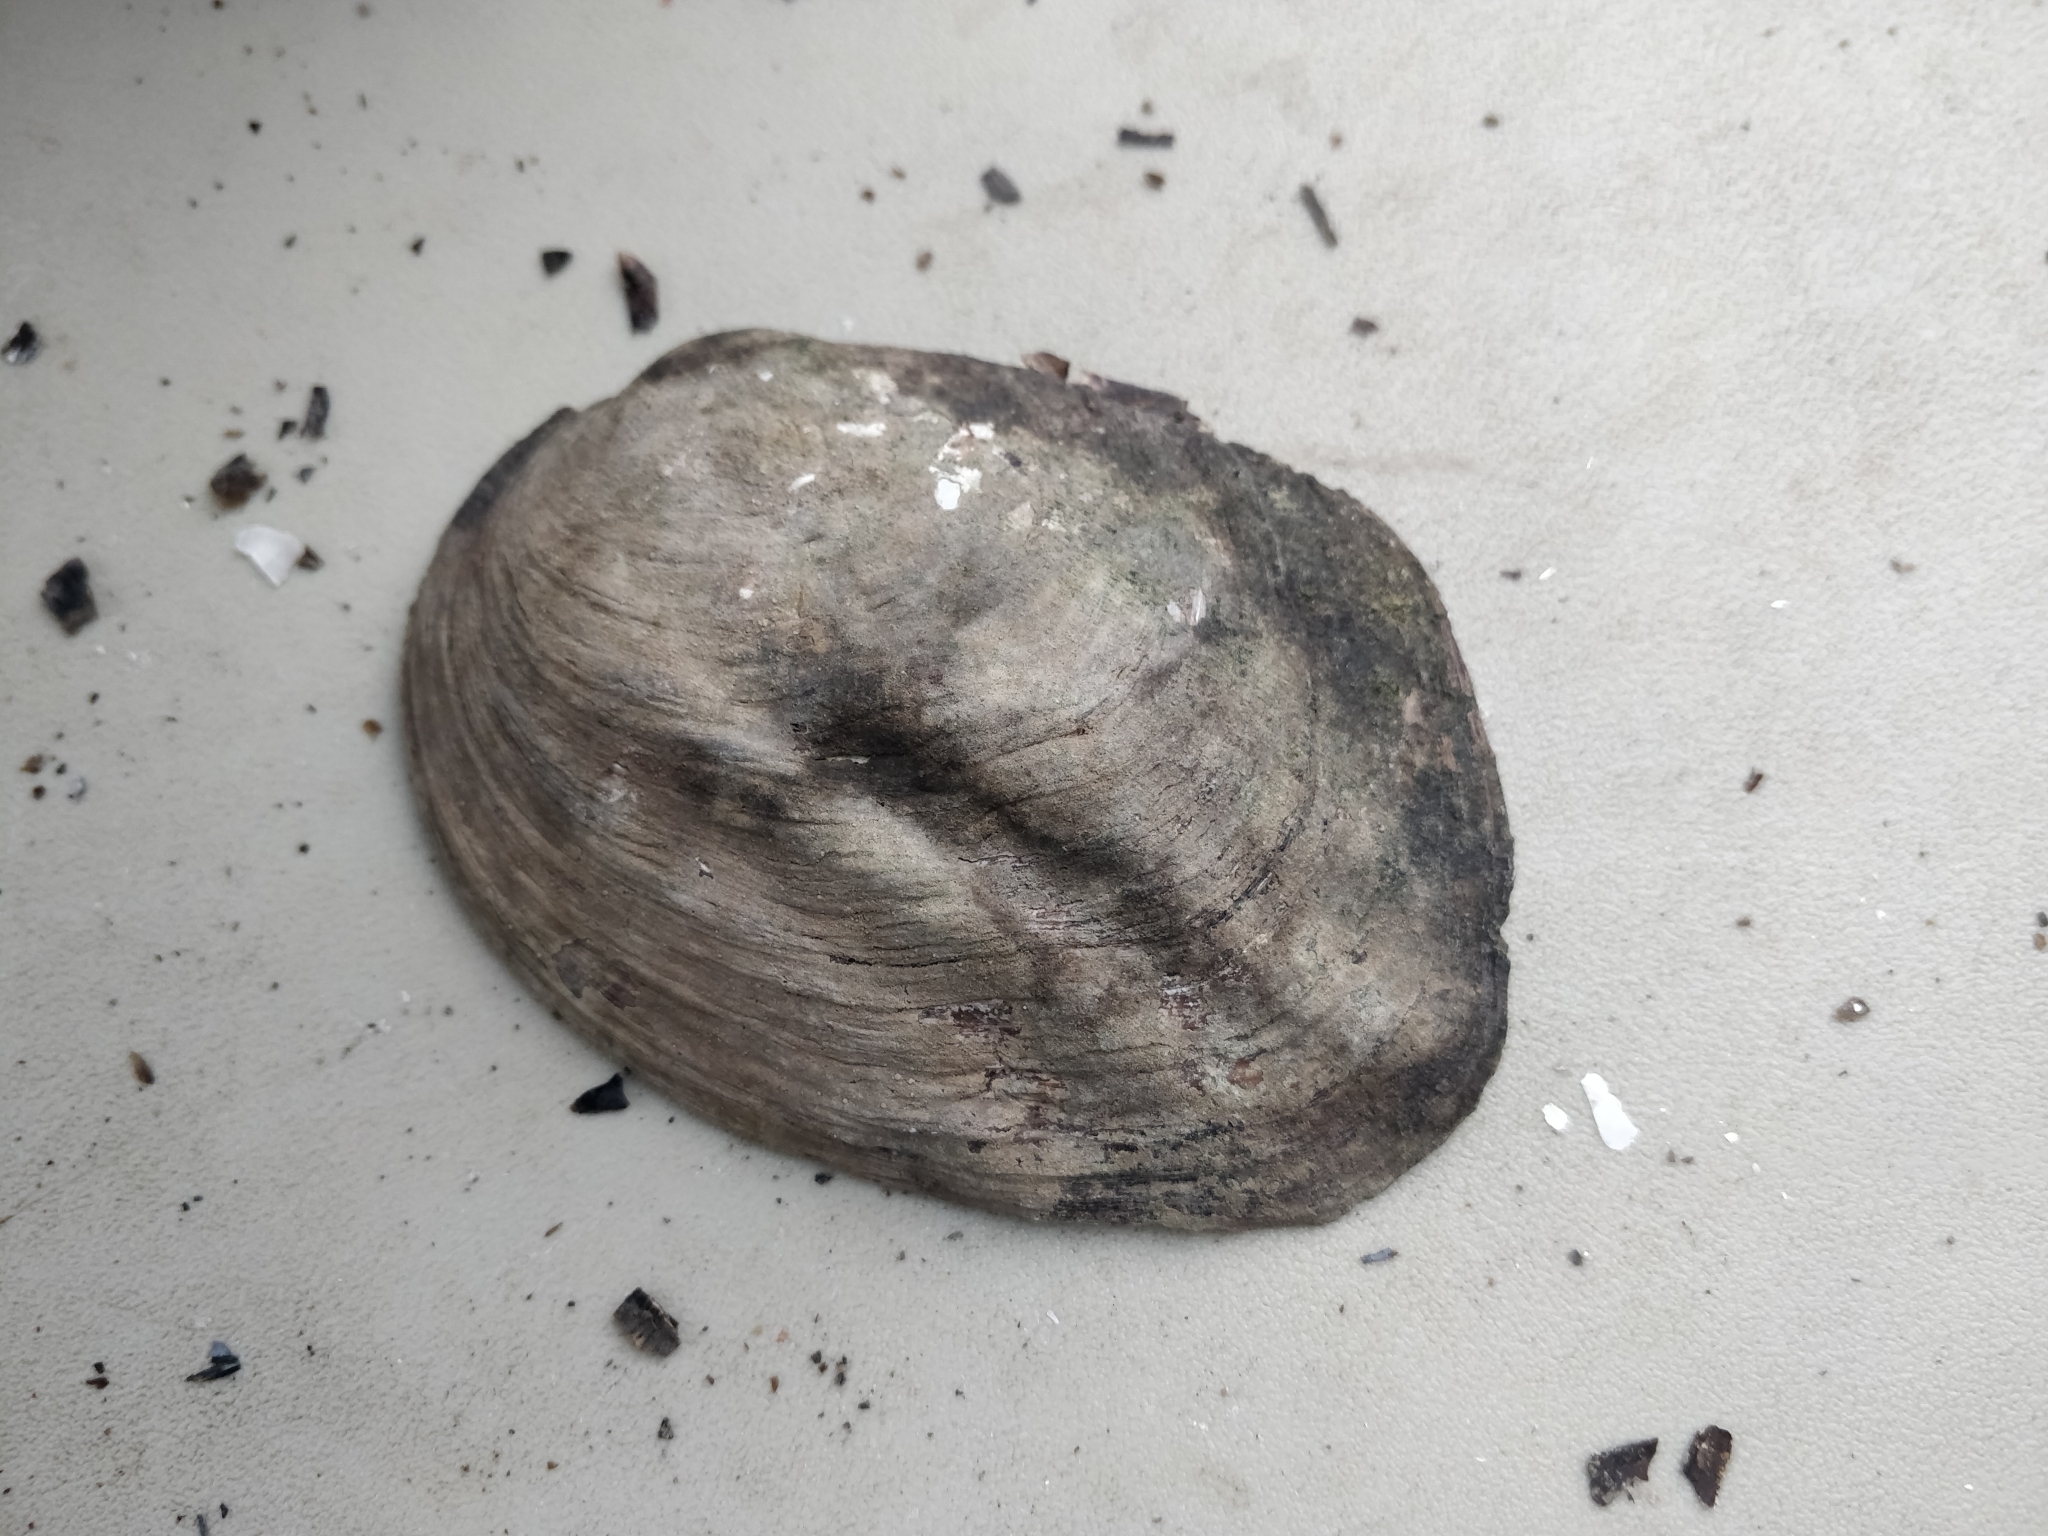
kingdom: Animalia
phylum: Mollusca
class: Bivalvia
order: Unionida
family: Unionidae
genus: Amblema
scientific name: Amblema plicata
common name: Threeridge
